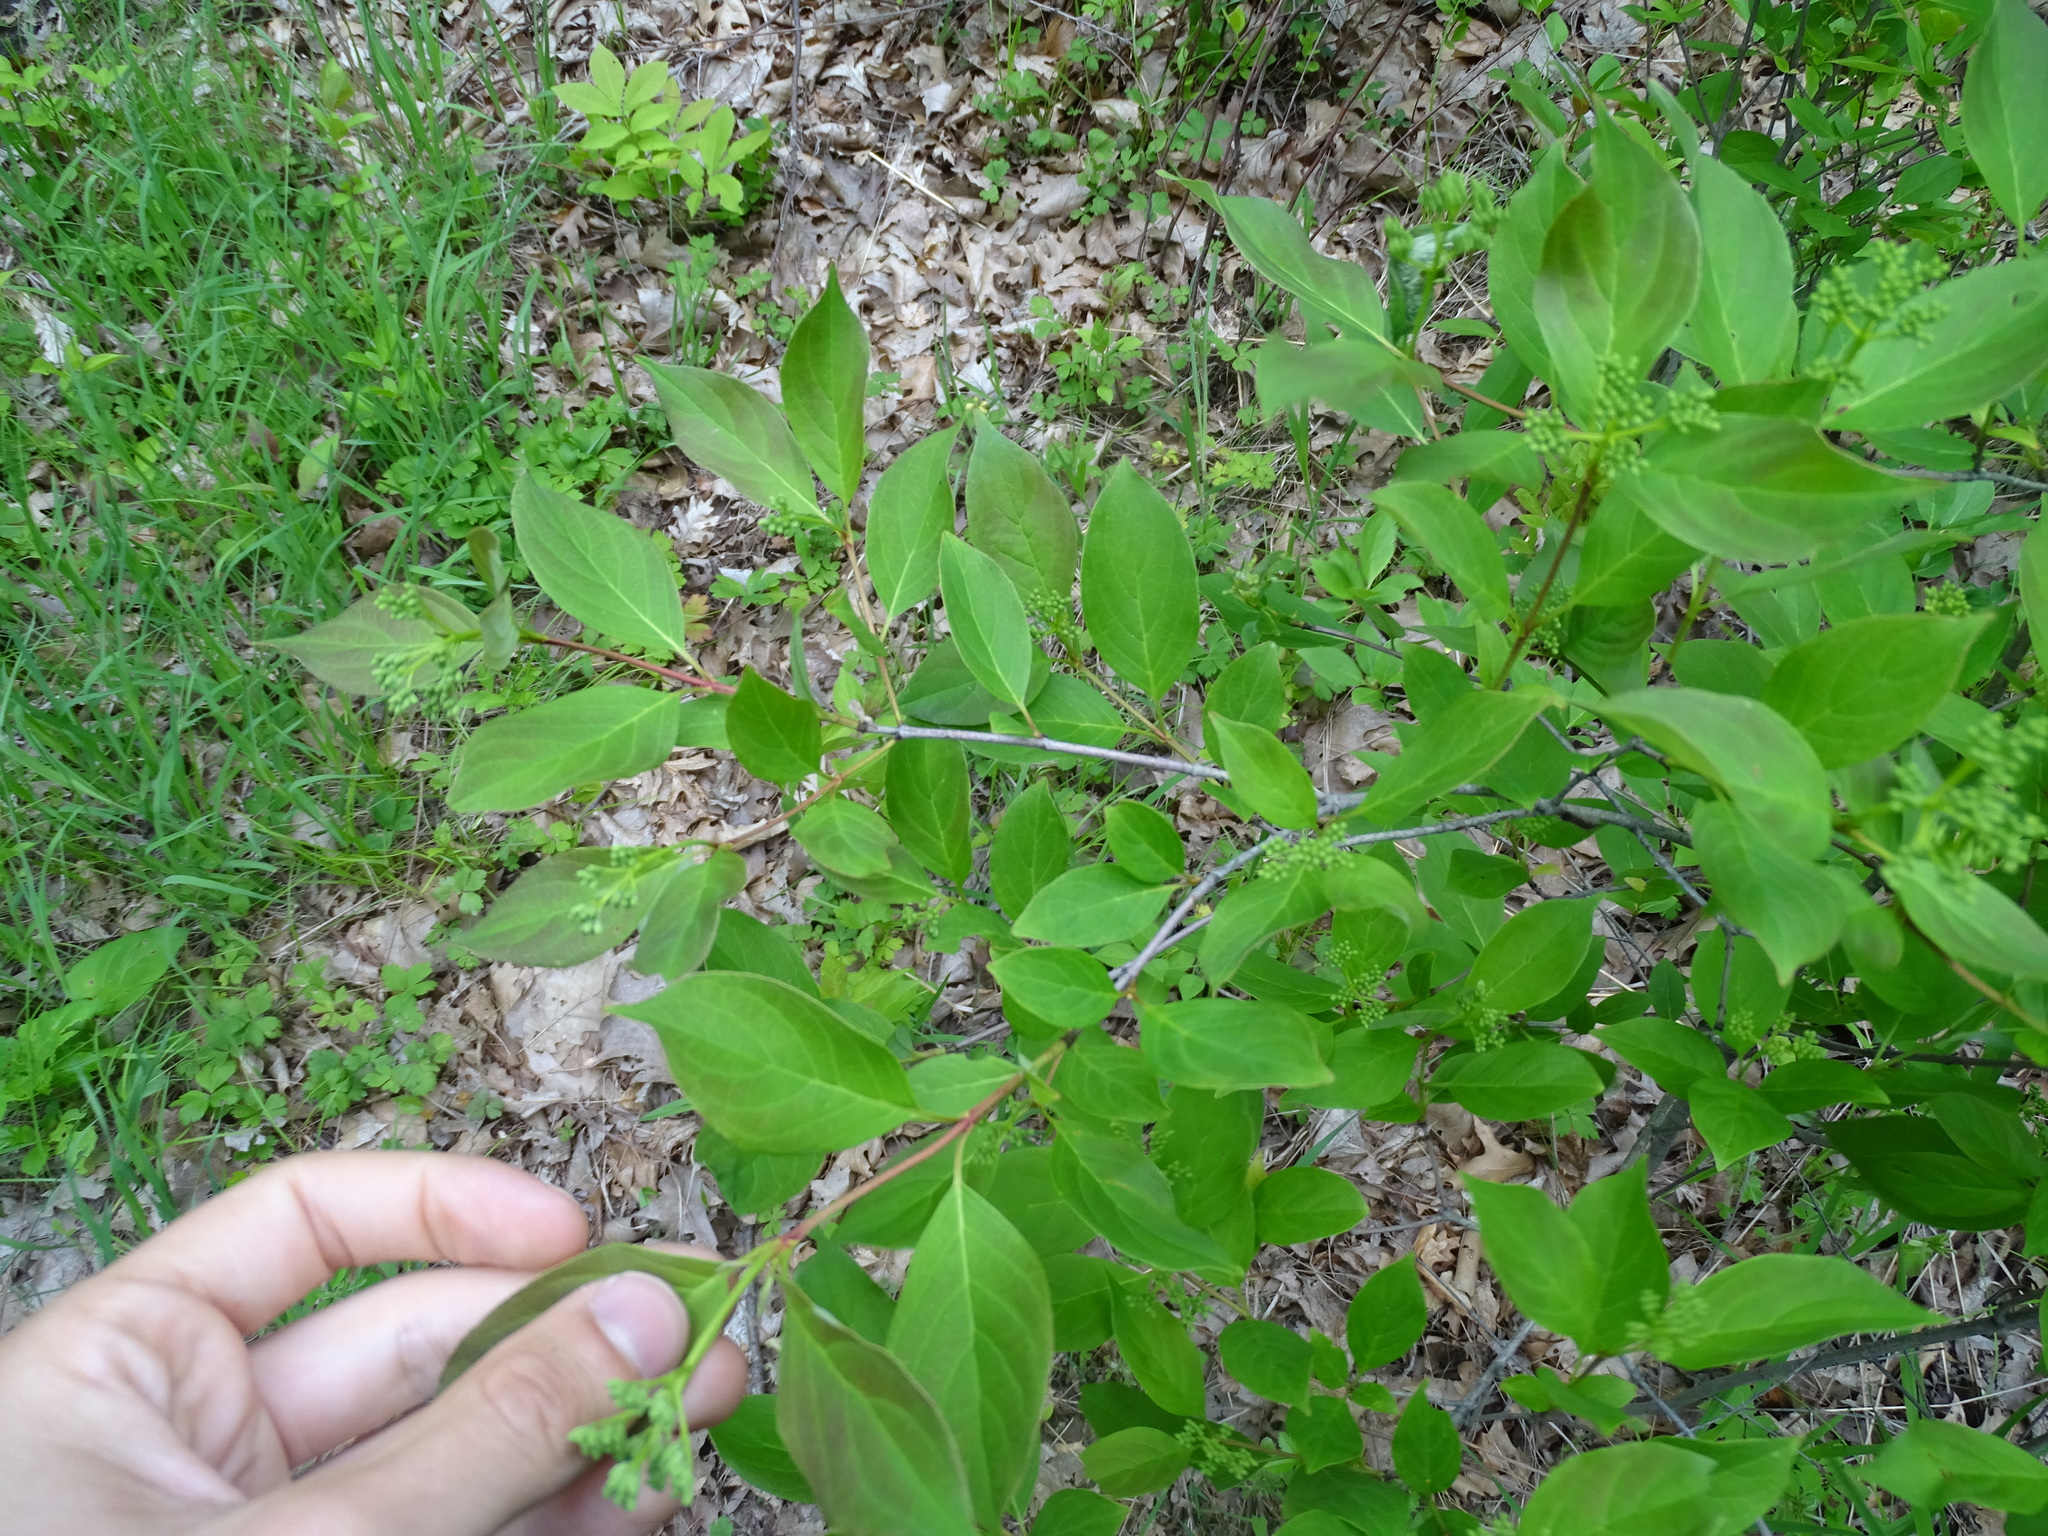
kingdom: Plantae
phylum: Tracheophyta
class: Magnoliopsida
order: Cornales
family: Cornaceae
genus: Cornus
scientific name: Cornus racemosa
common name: Panicled dogwood
